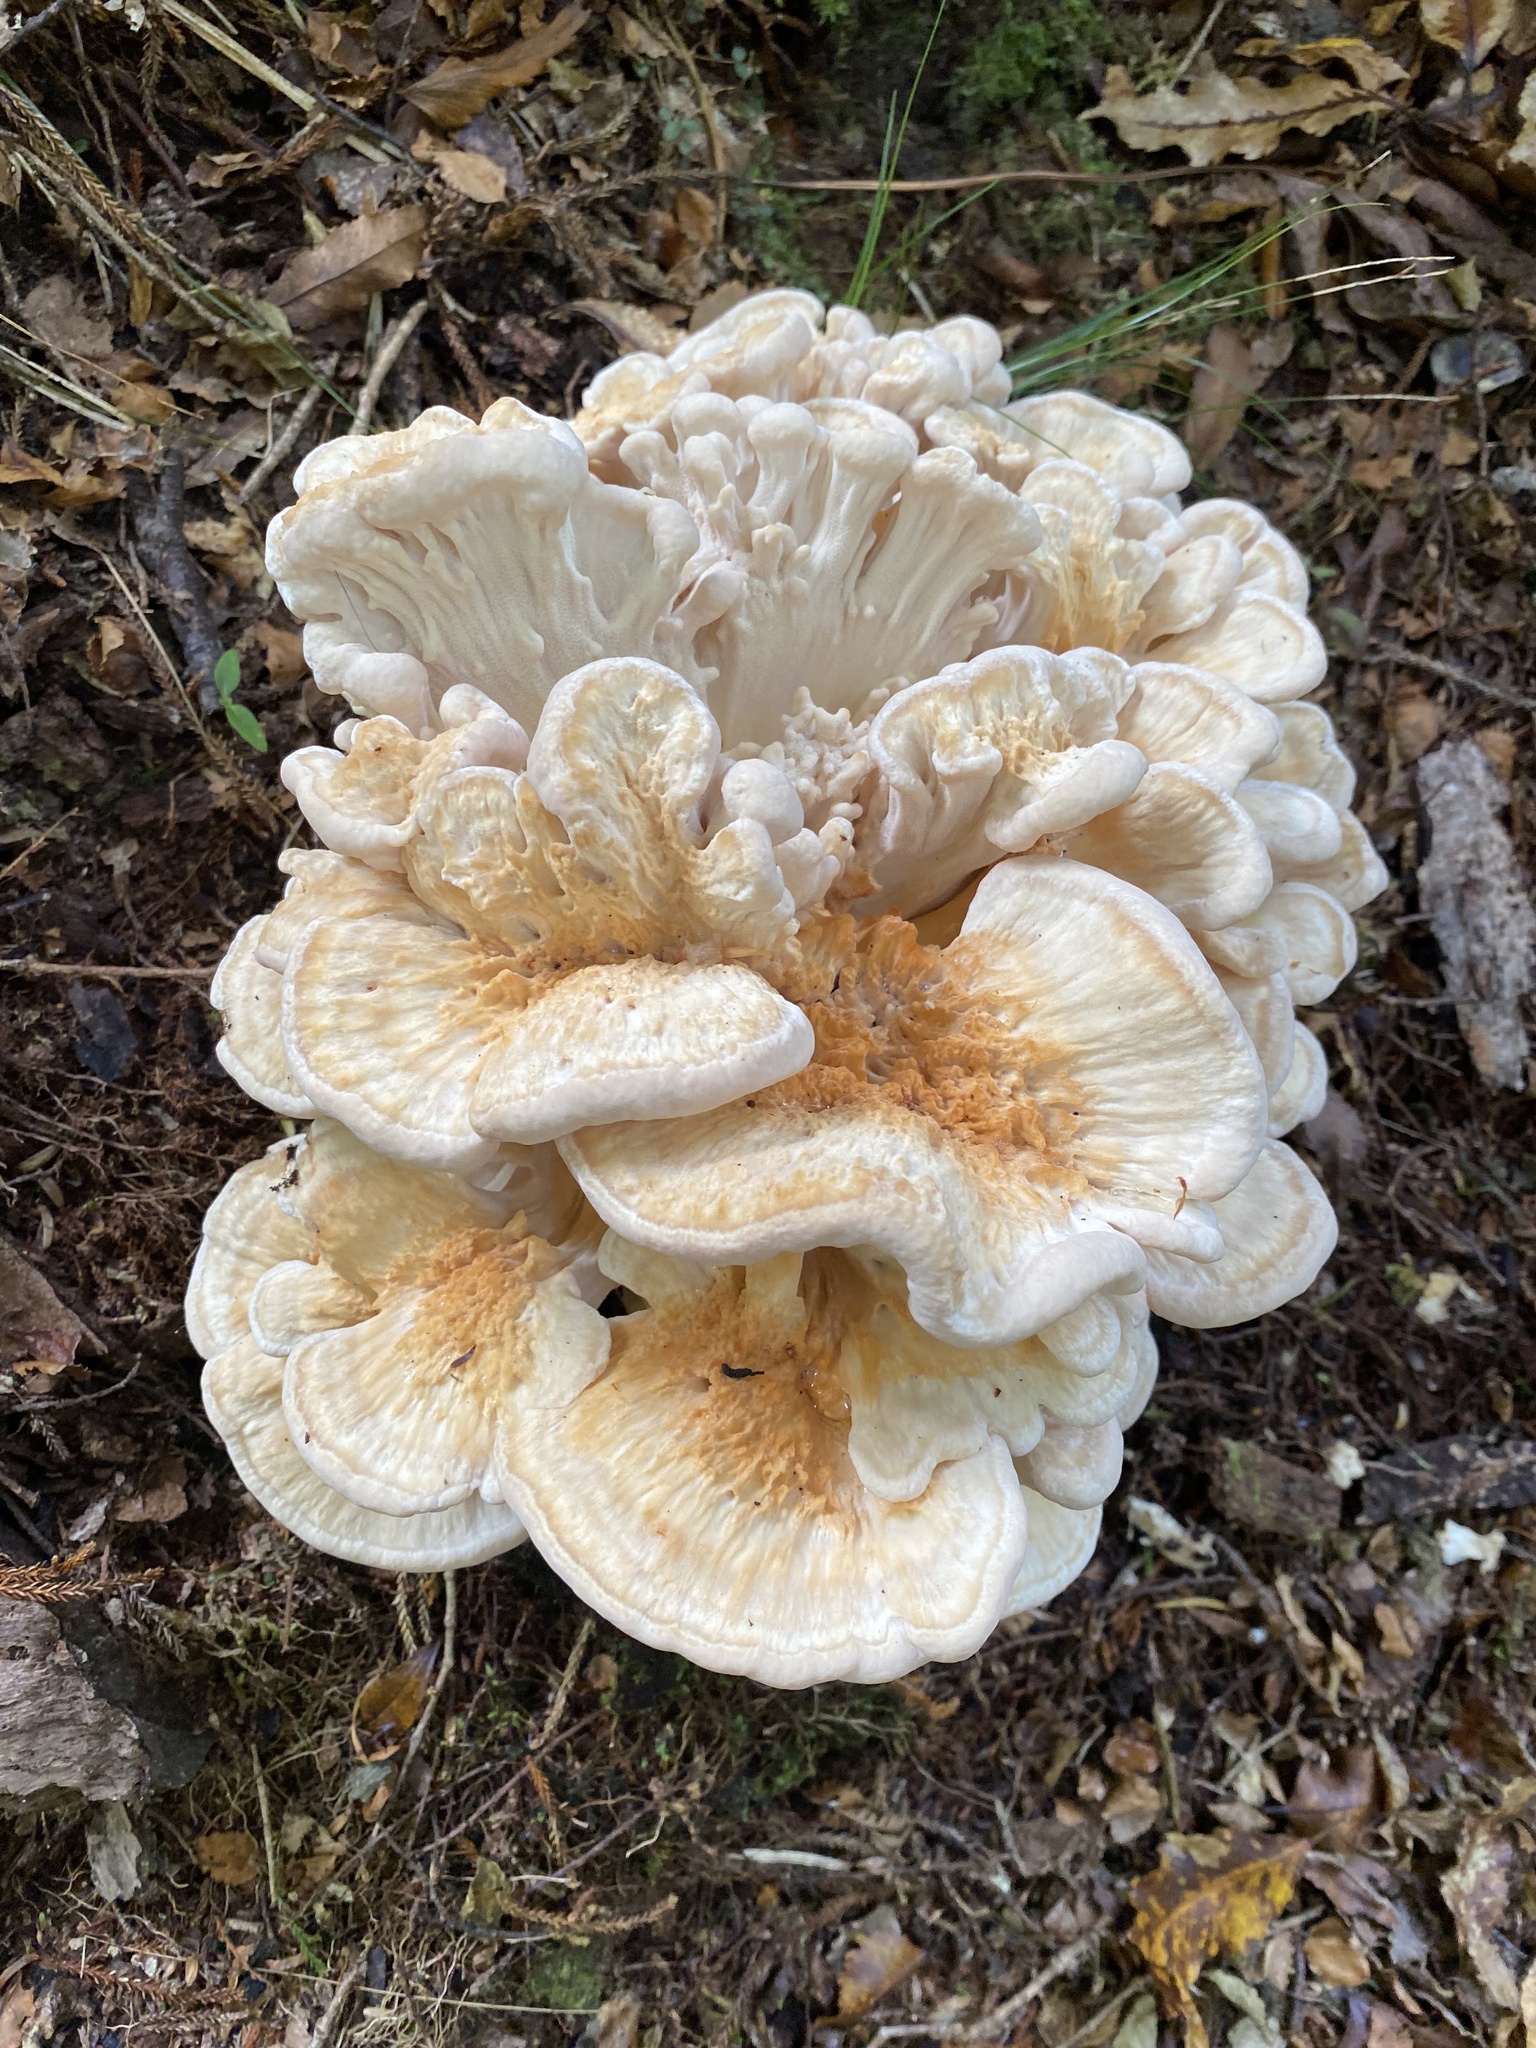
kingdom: Plantae
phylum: Tracheophyta
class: Magnoliopsida
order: Asterales
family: Asteraceae
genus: Leucogenes
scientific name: Leucogenes leontopodium
